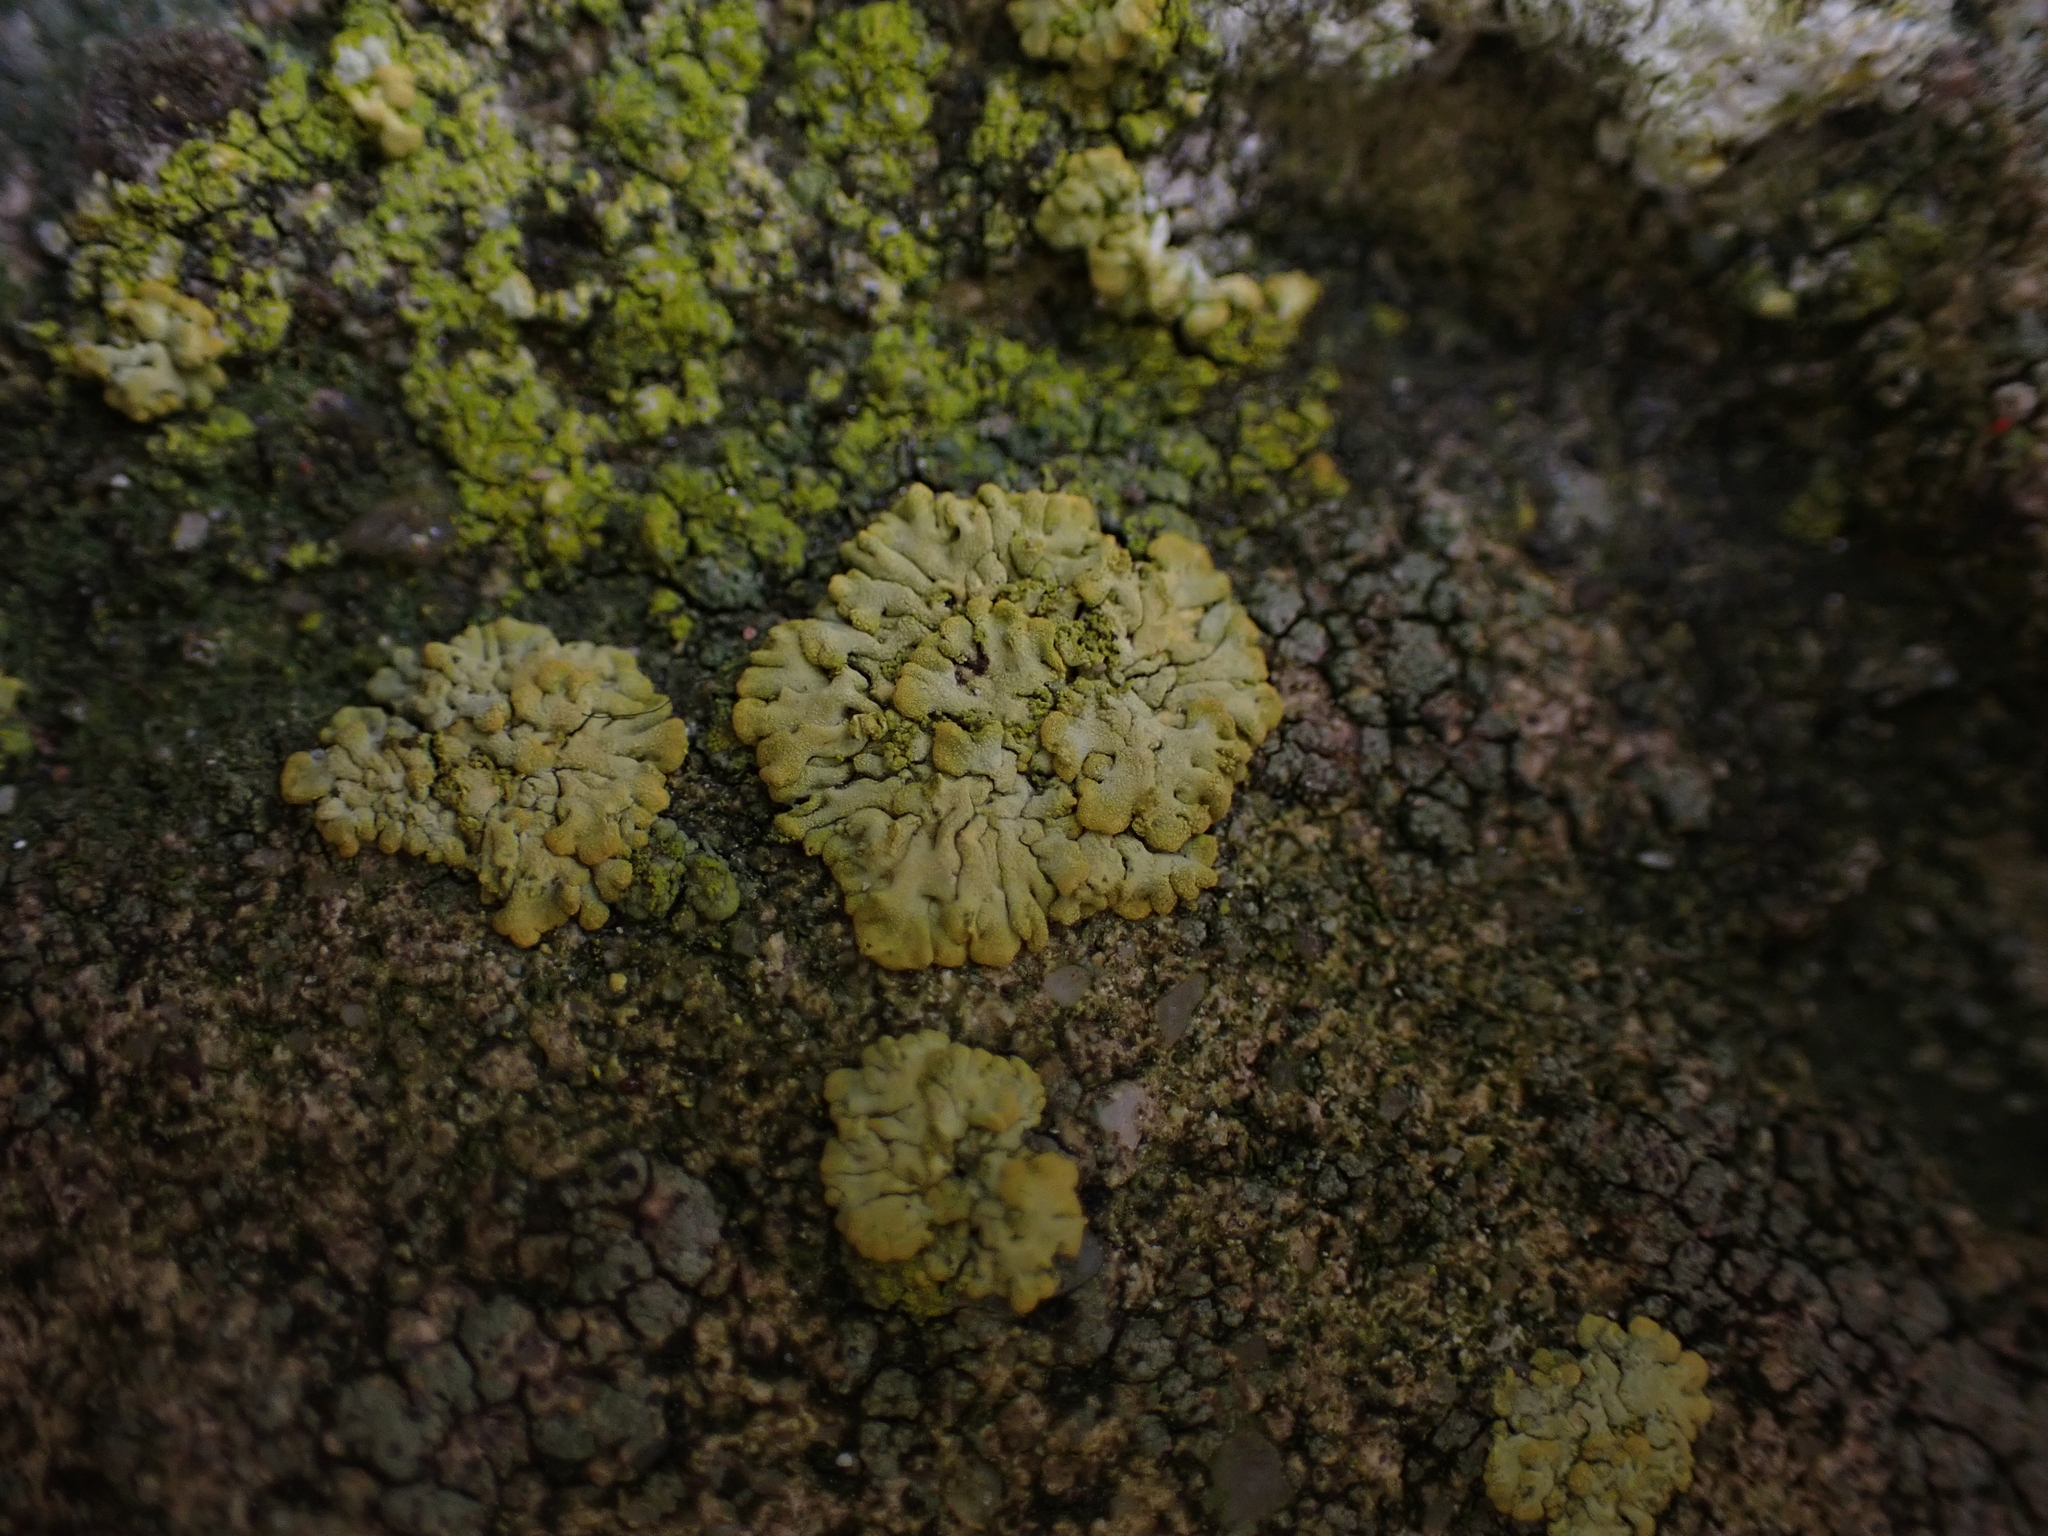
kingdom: Fungi
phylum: Ascomycota
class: Lecanoromycetes
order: Teloschistales
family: Teloschistaceae
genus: Calogaya
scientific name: Calogaya decipiens
